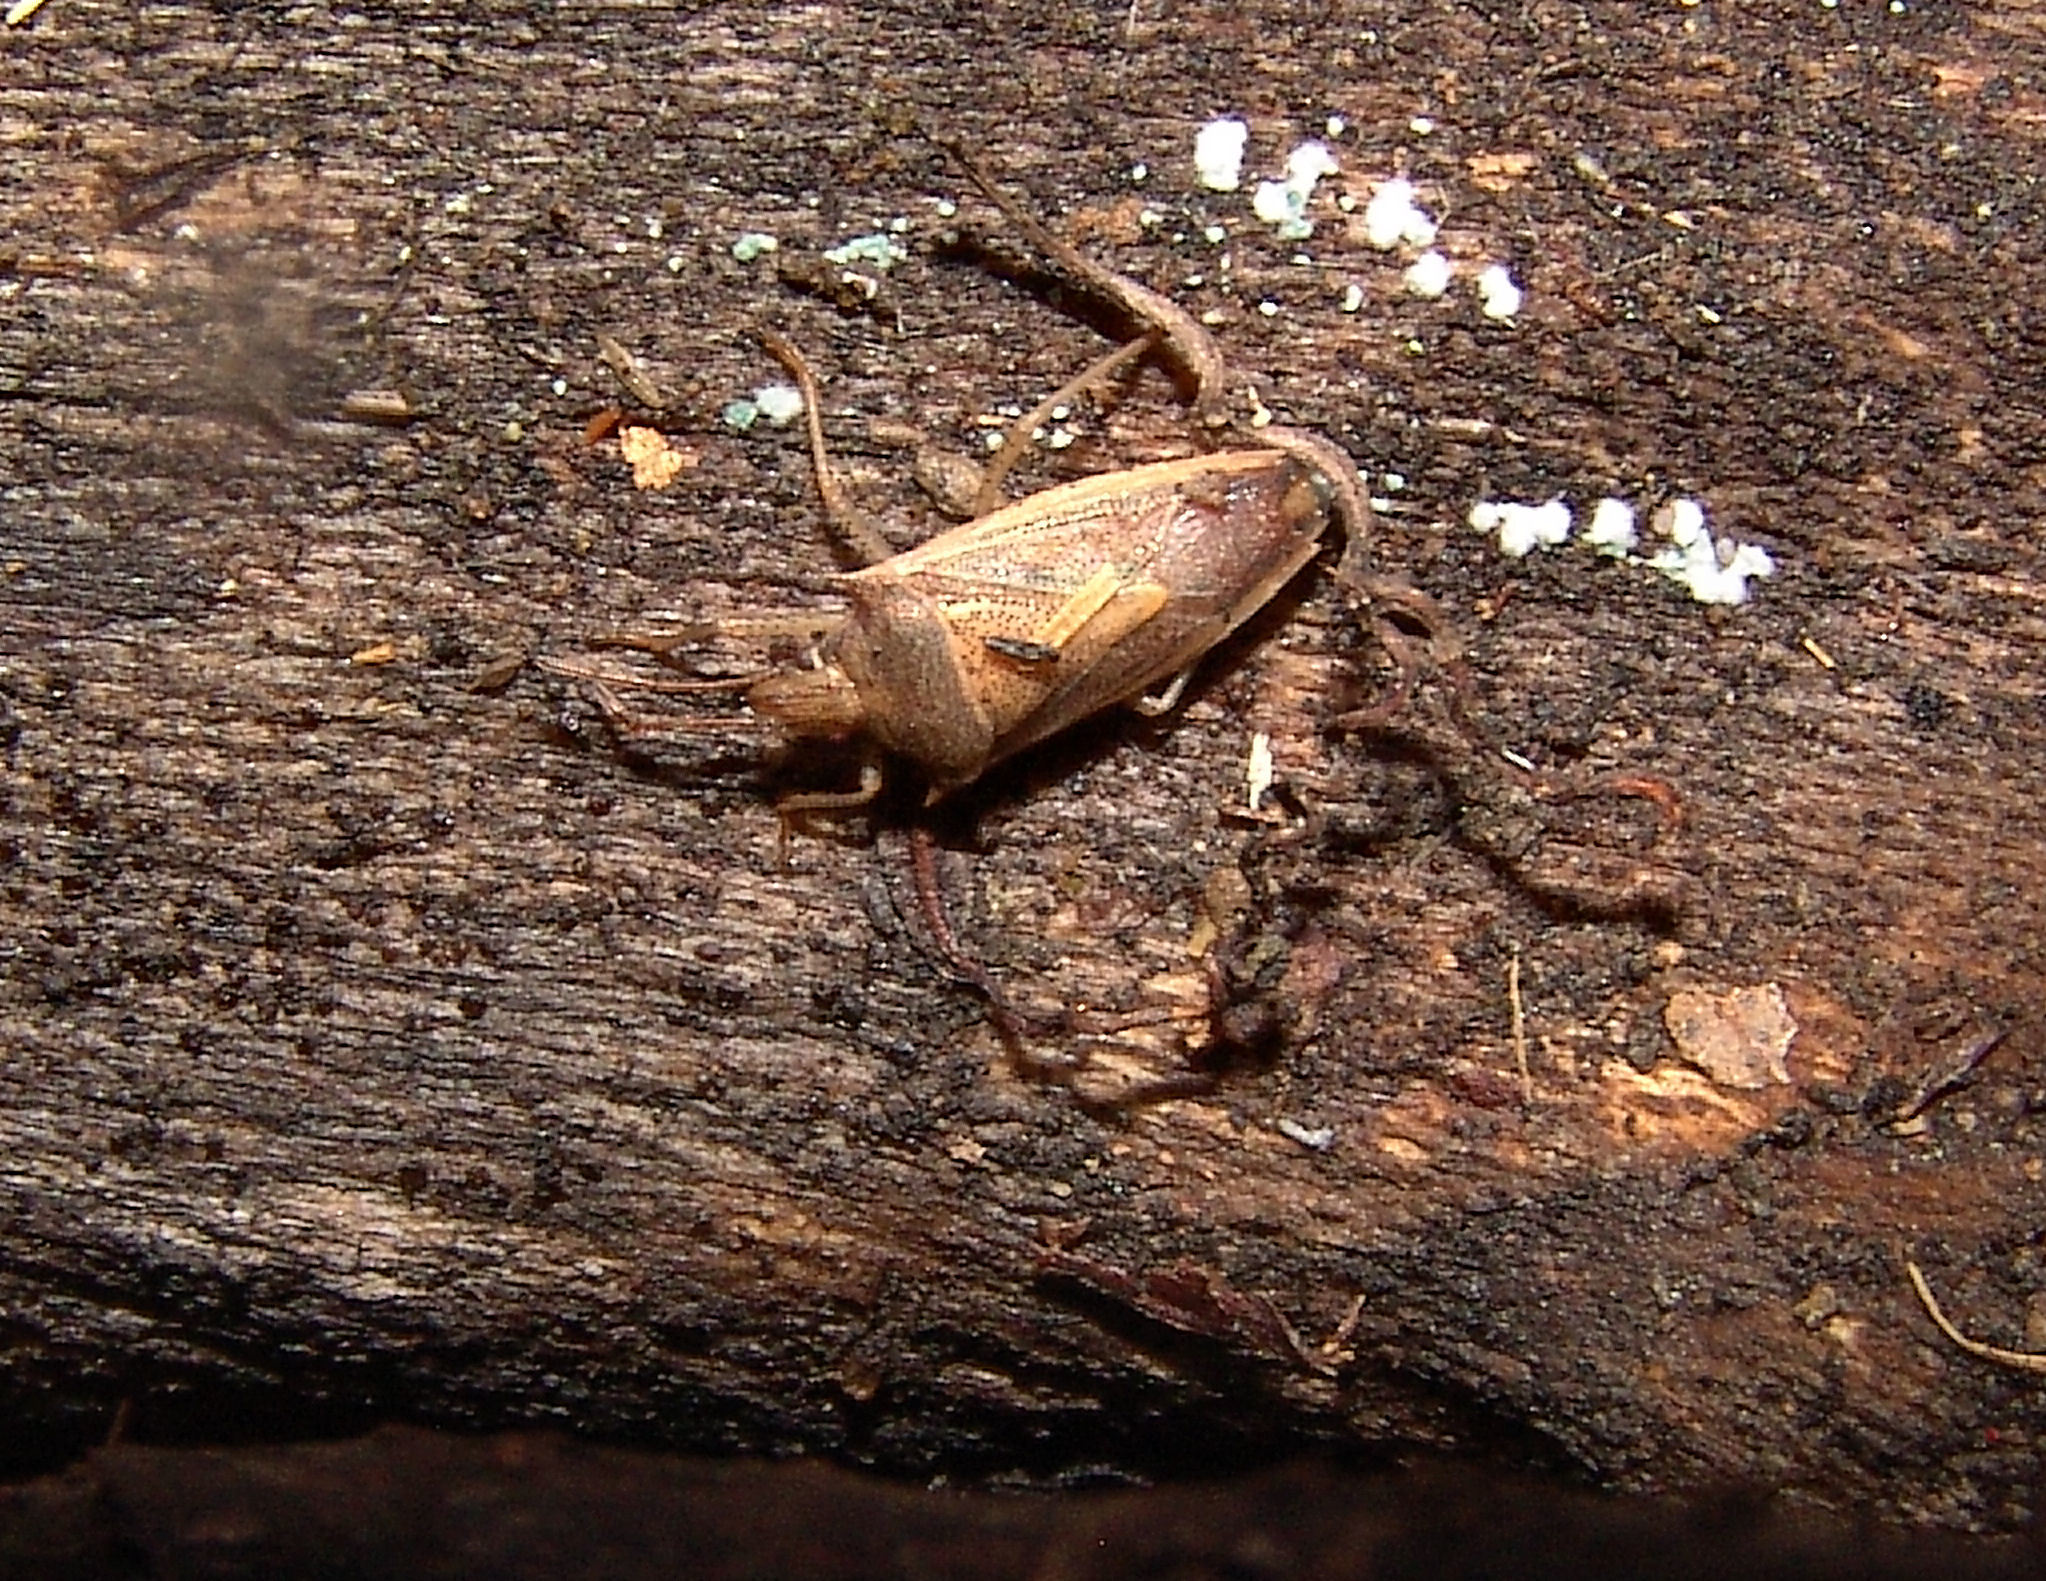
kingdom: Animalia
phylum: Arthropoda
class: Insecta
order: Hemiptera
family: Pentatomidae
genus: Oebalus
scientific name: Oebalus pugnax
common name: Rice stink bug
